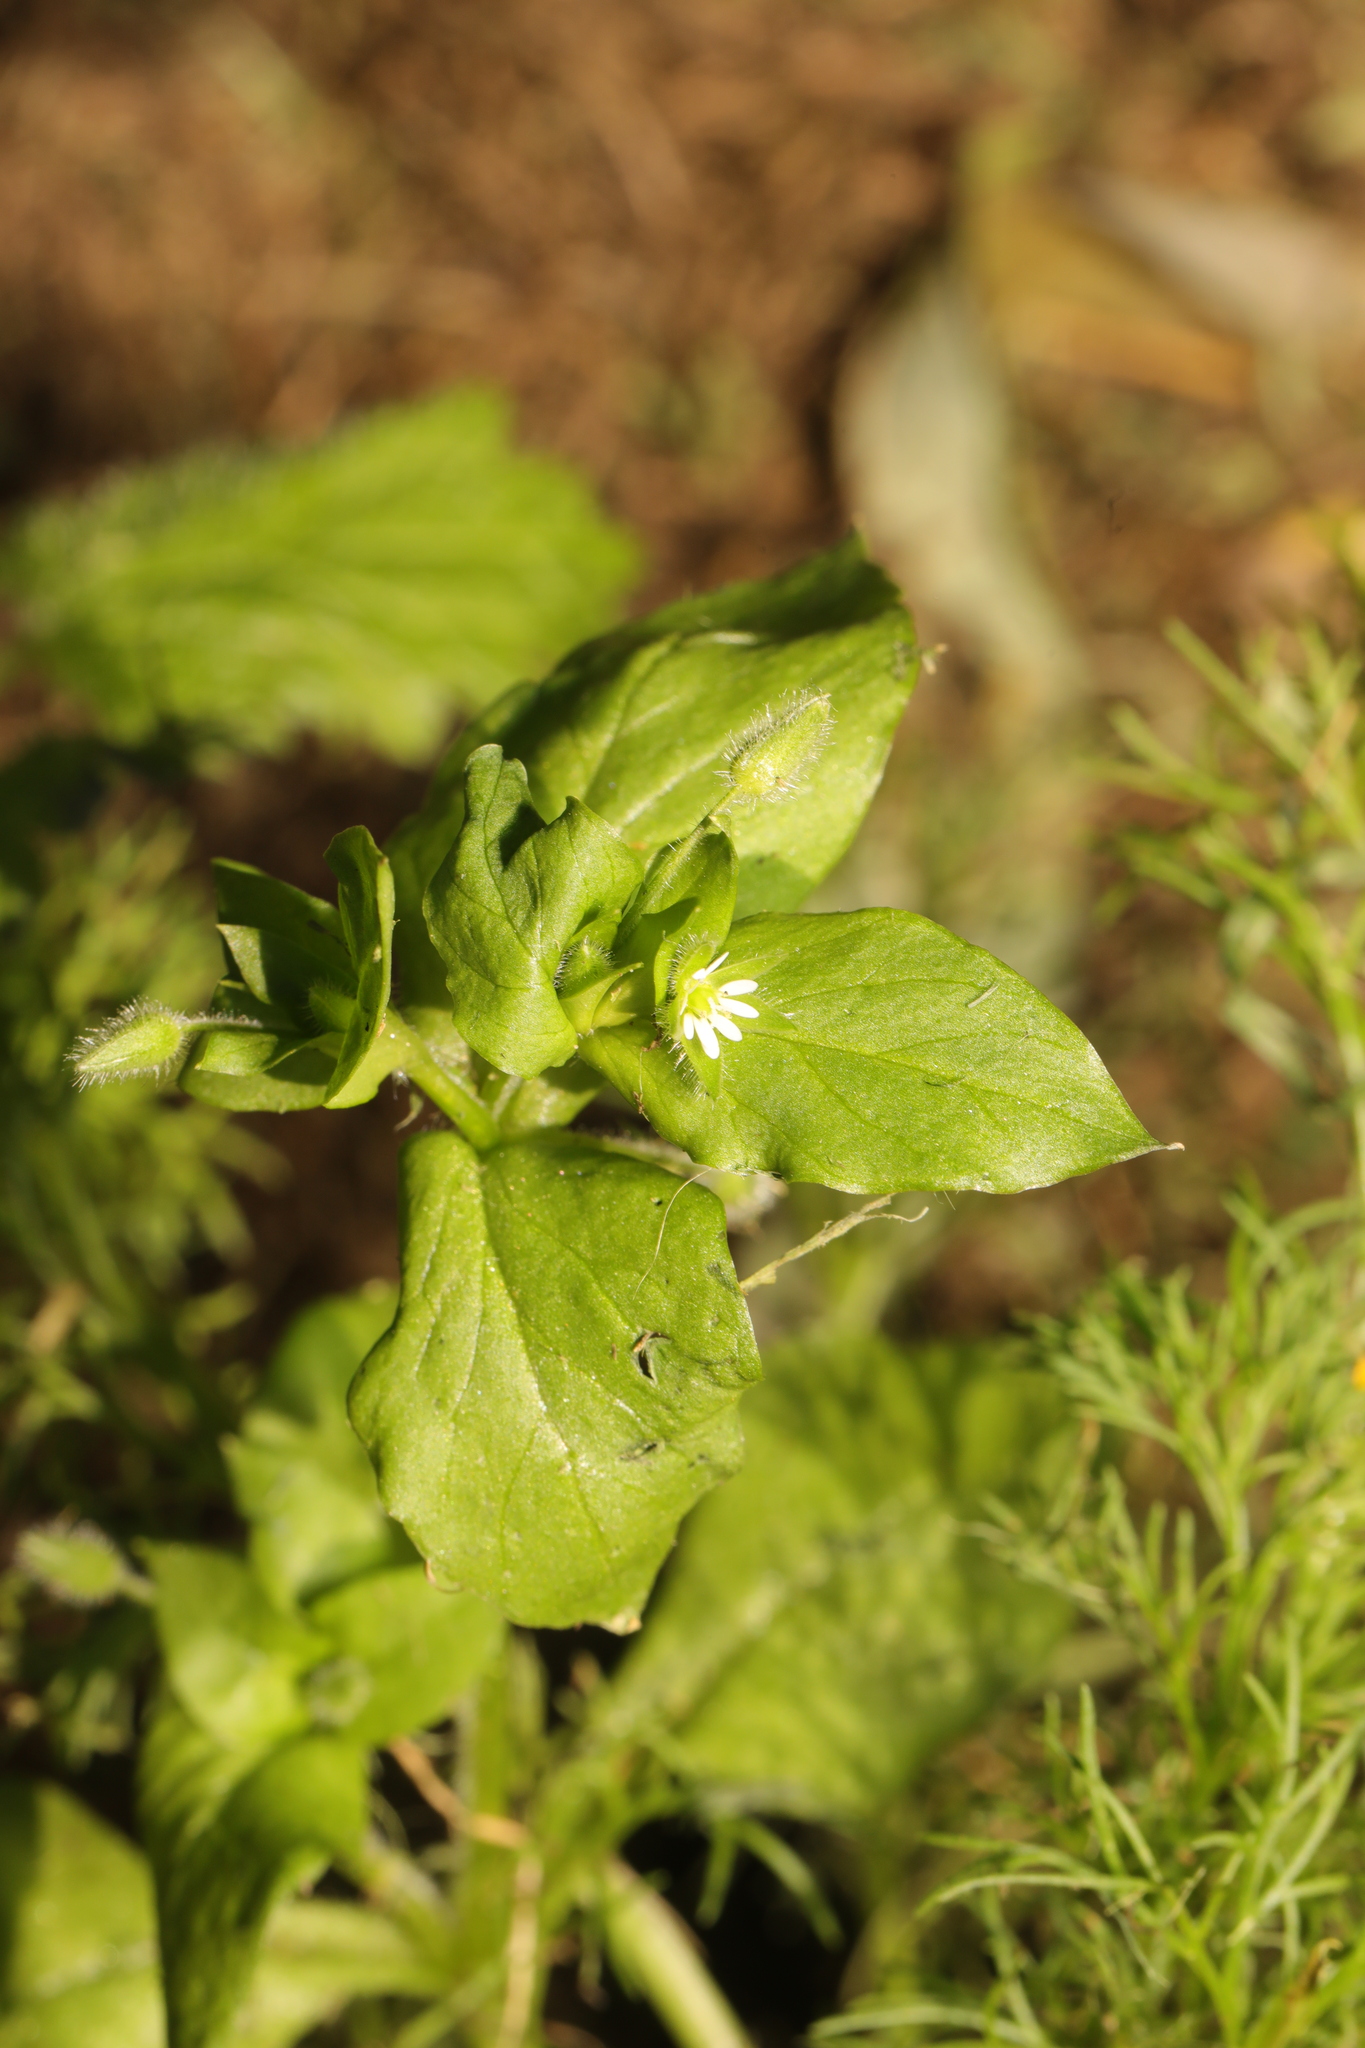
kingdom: Plantae
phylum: Tracheophyta
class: Magnoliopsida
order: Caryophyllales
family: Caryophyllaceae
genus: Stellaria
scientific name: Stellaria media
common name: Common chickweed
